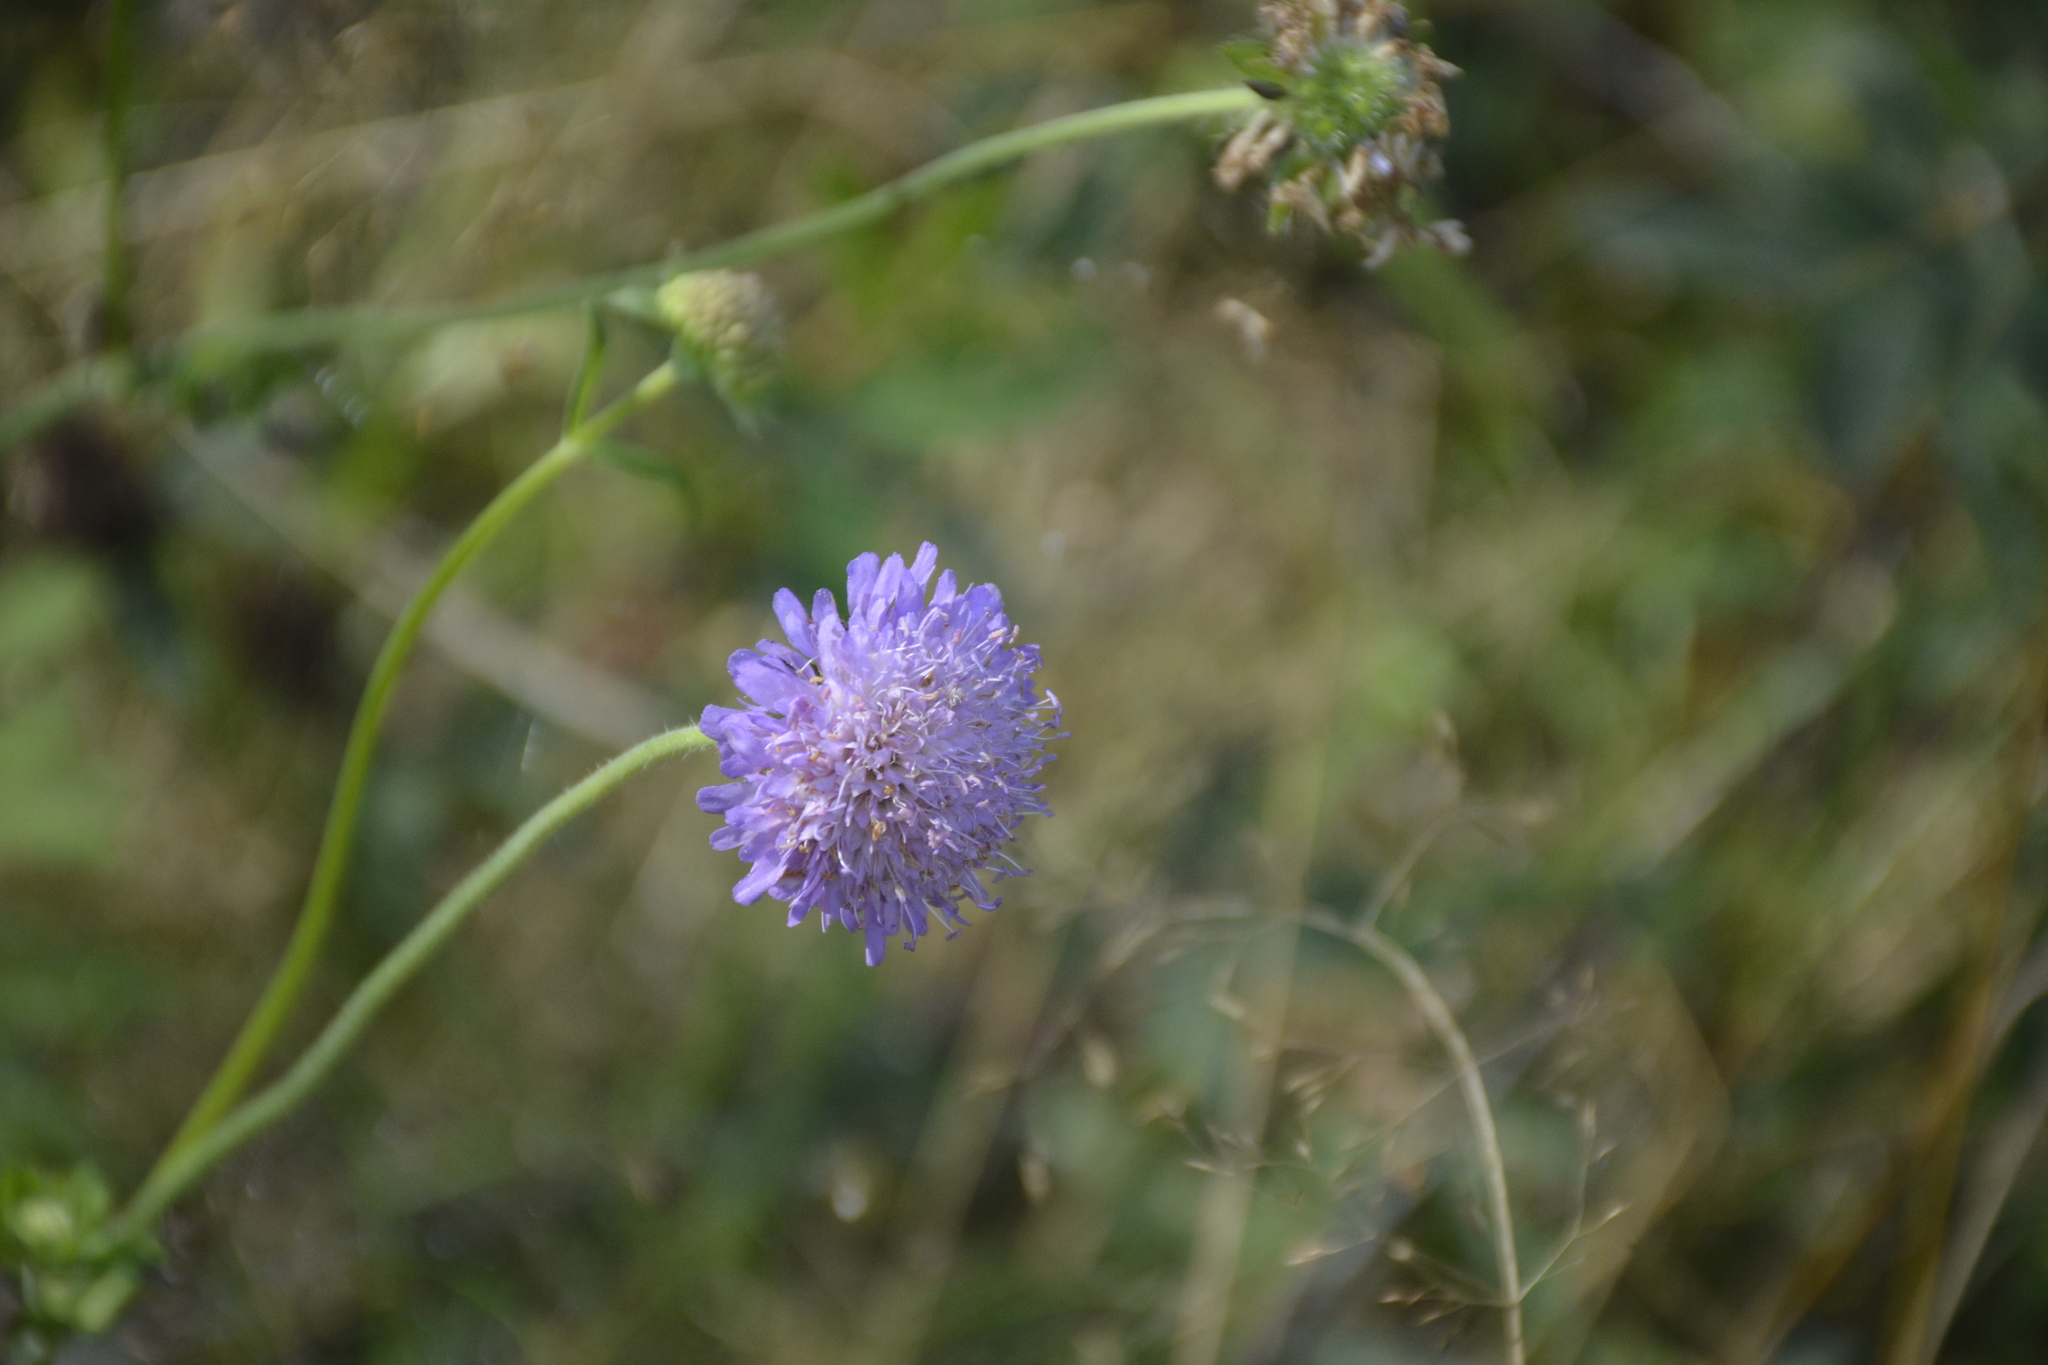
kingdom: Plantae
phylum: Tracheophyta
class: Magnoliopsida
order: Dipsacales
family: Caprifoliaceae
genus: Knautia
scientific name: Knautia arvensis
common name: Field scabiosa
